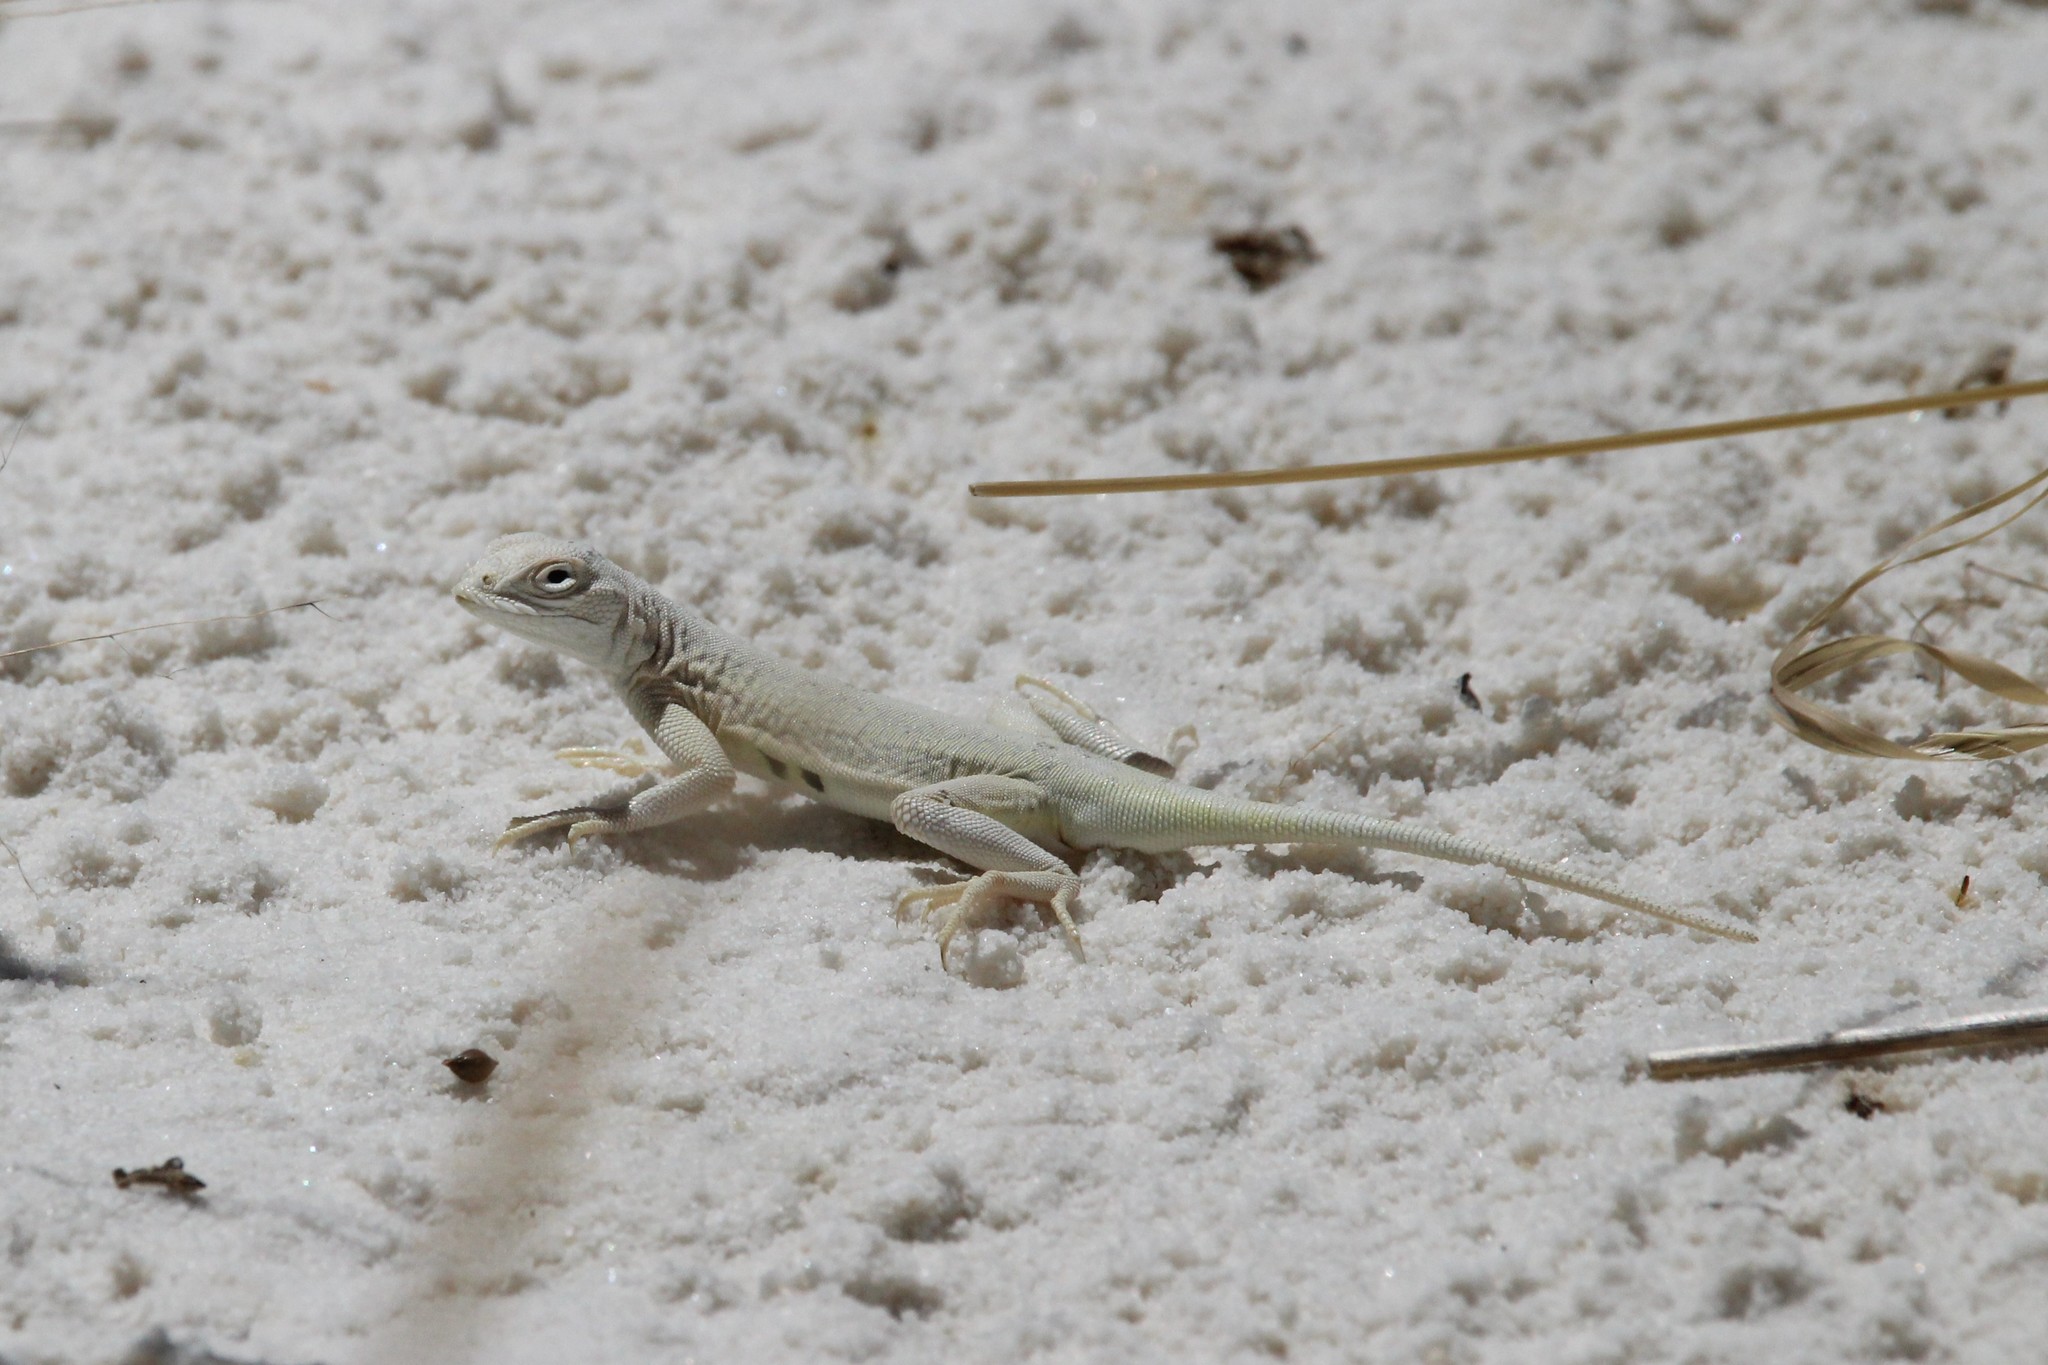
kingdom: Animalia
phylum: Chordata
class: Squamata
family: Phrynosomatidae
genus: Holbrookia
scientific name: Holbrookia maculata
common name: Lesser earless lizard
